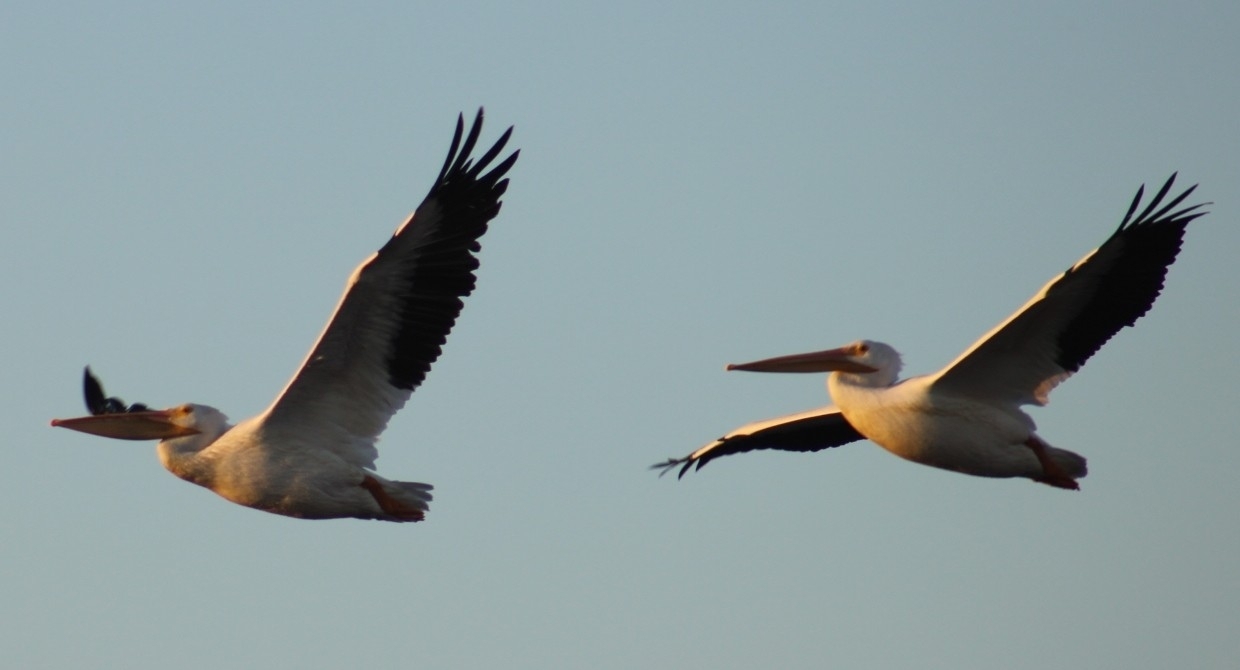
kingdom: Animalia
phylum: Chordata
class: Aves
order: Pelecaniformes
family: Pelecanidae
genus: Pelecanus
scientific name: Pelecanus erythrorhynchos
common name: American white pelican
